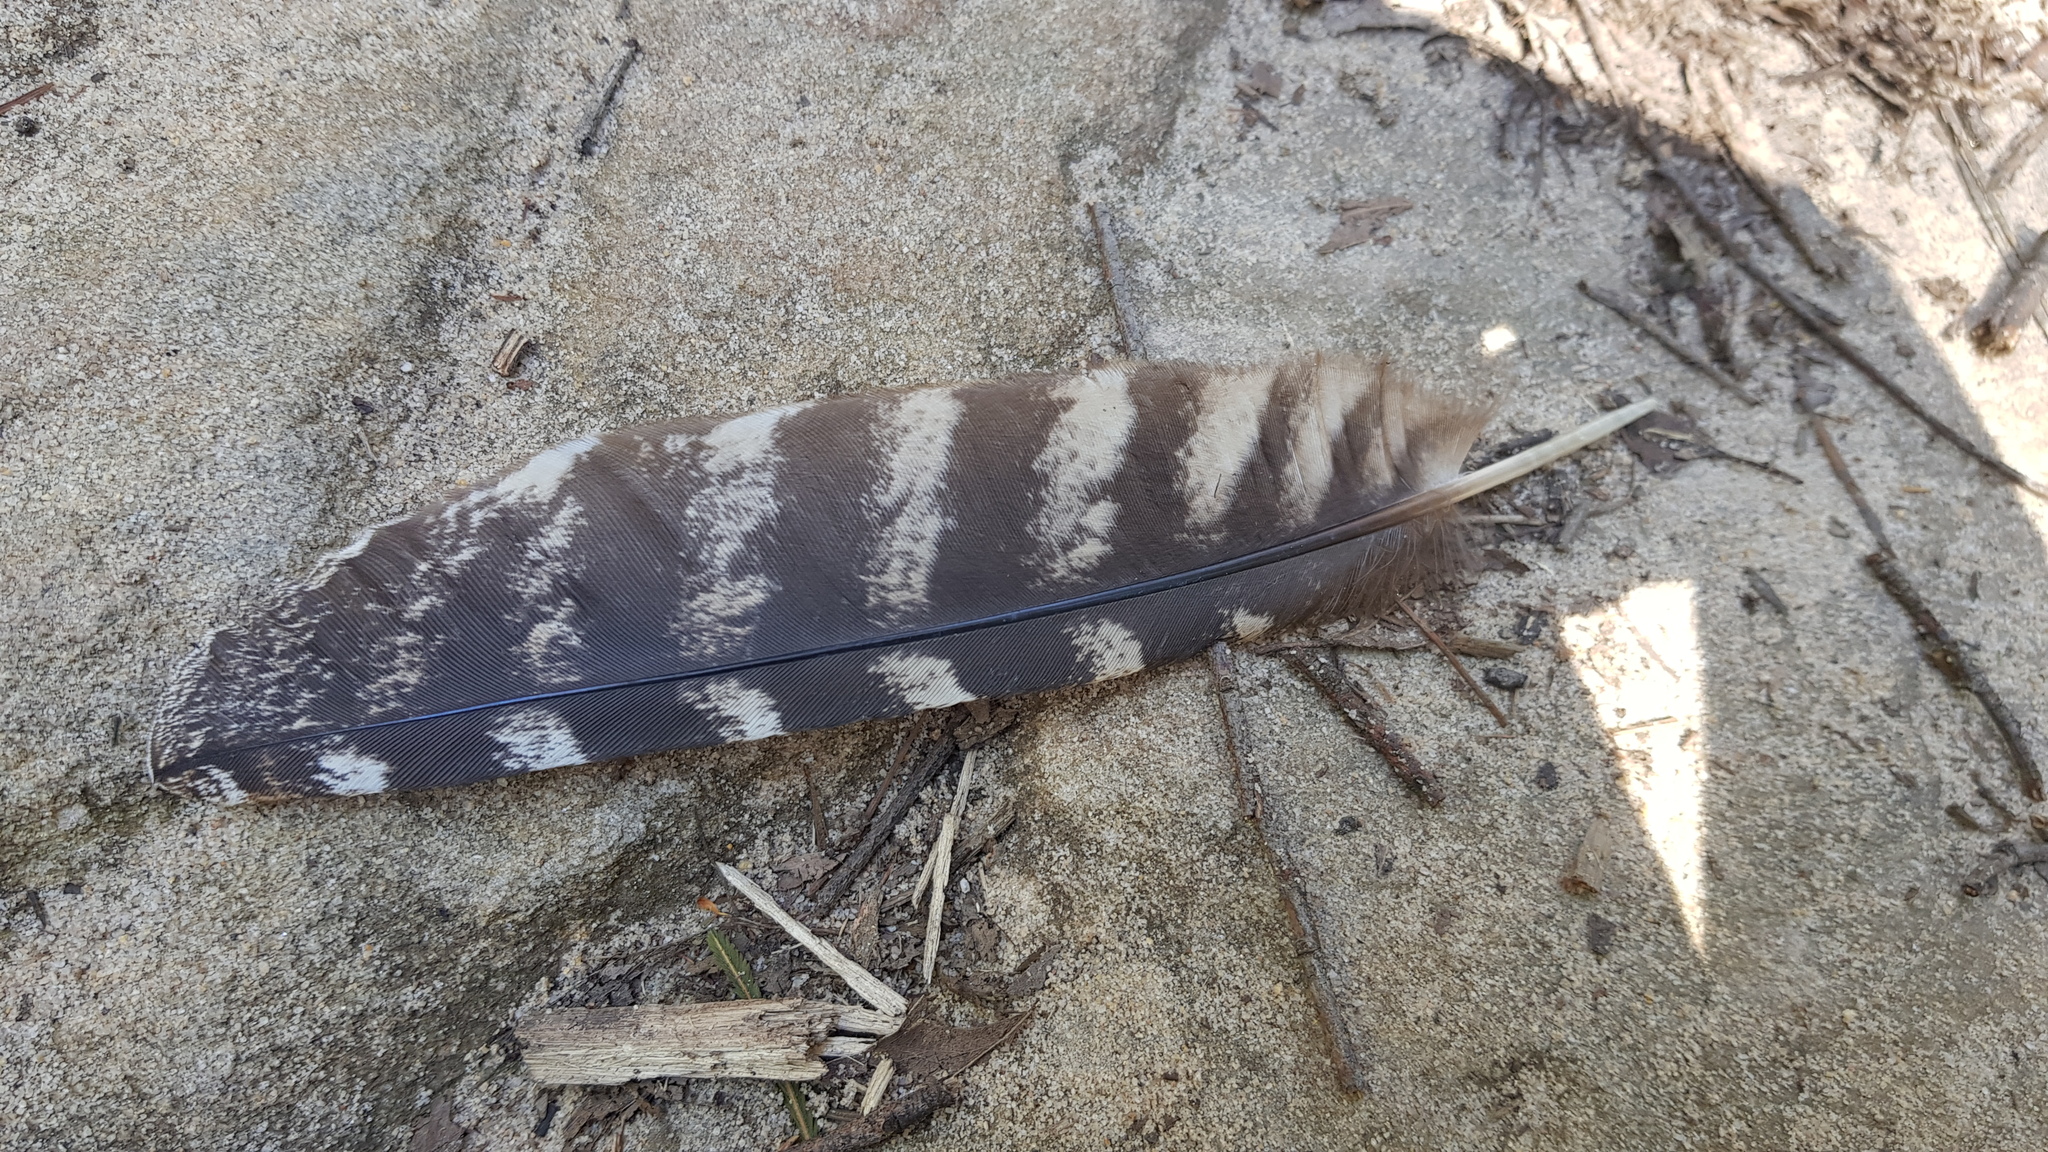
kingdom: Animalia
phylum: Chordata
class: Aves
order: Caprimulgiformes
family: Podargidae
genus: Podargus
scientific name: Podargus strigoides
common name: Tawny frogmouth
